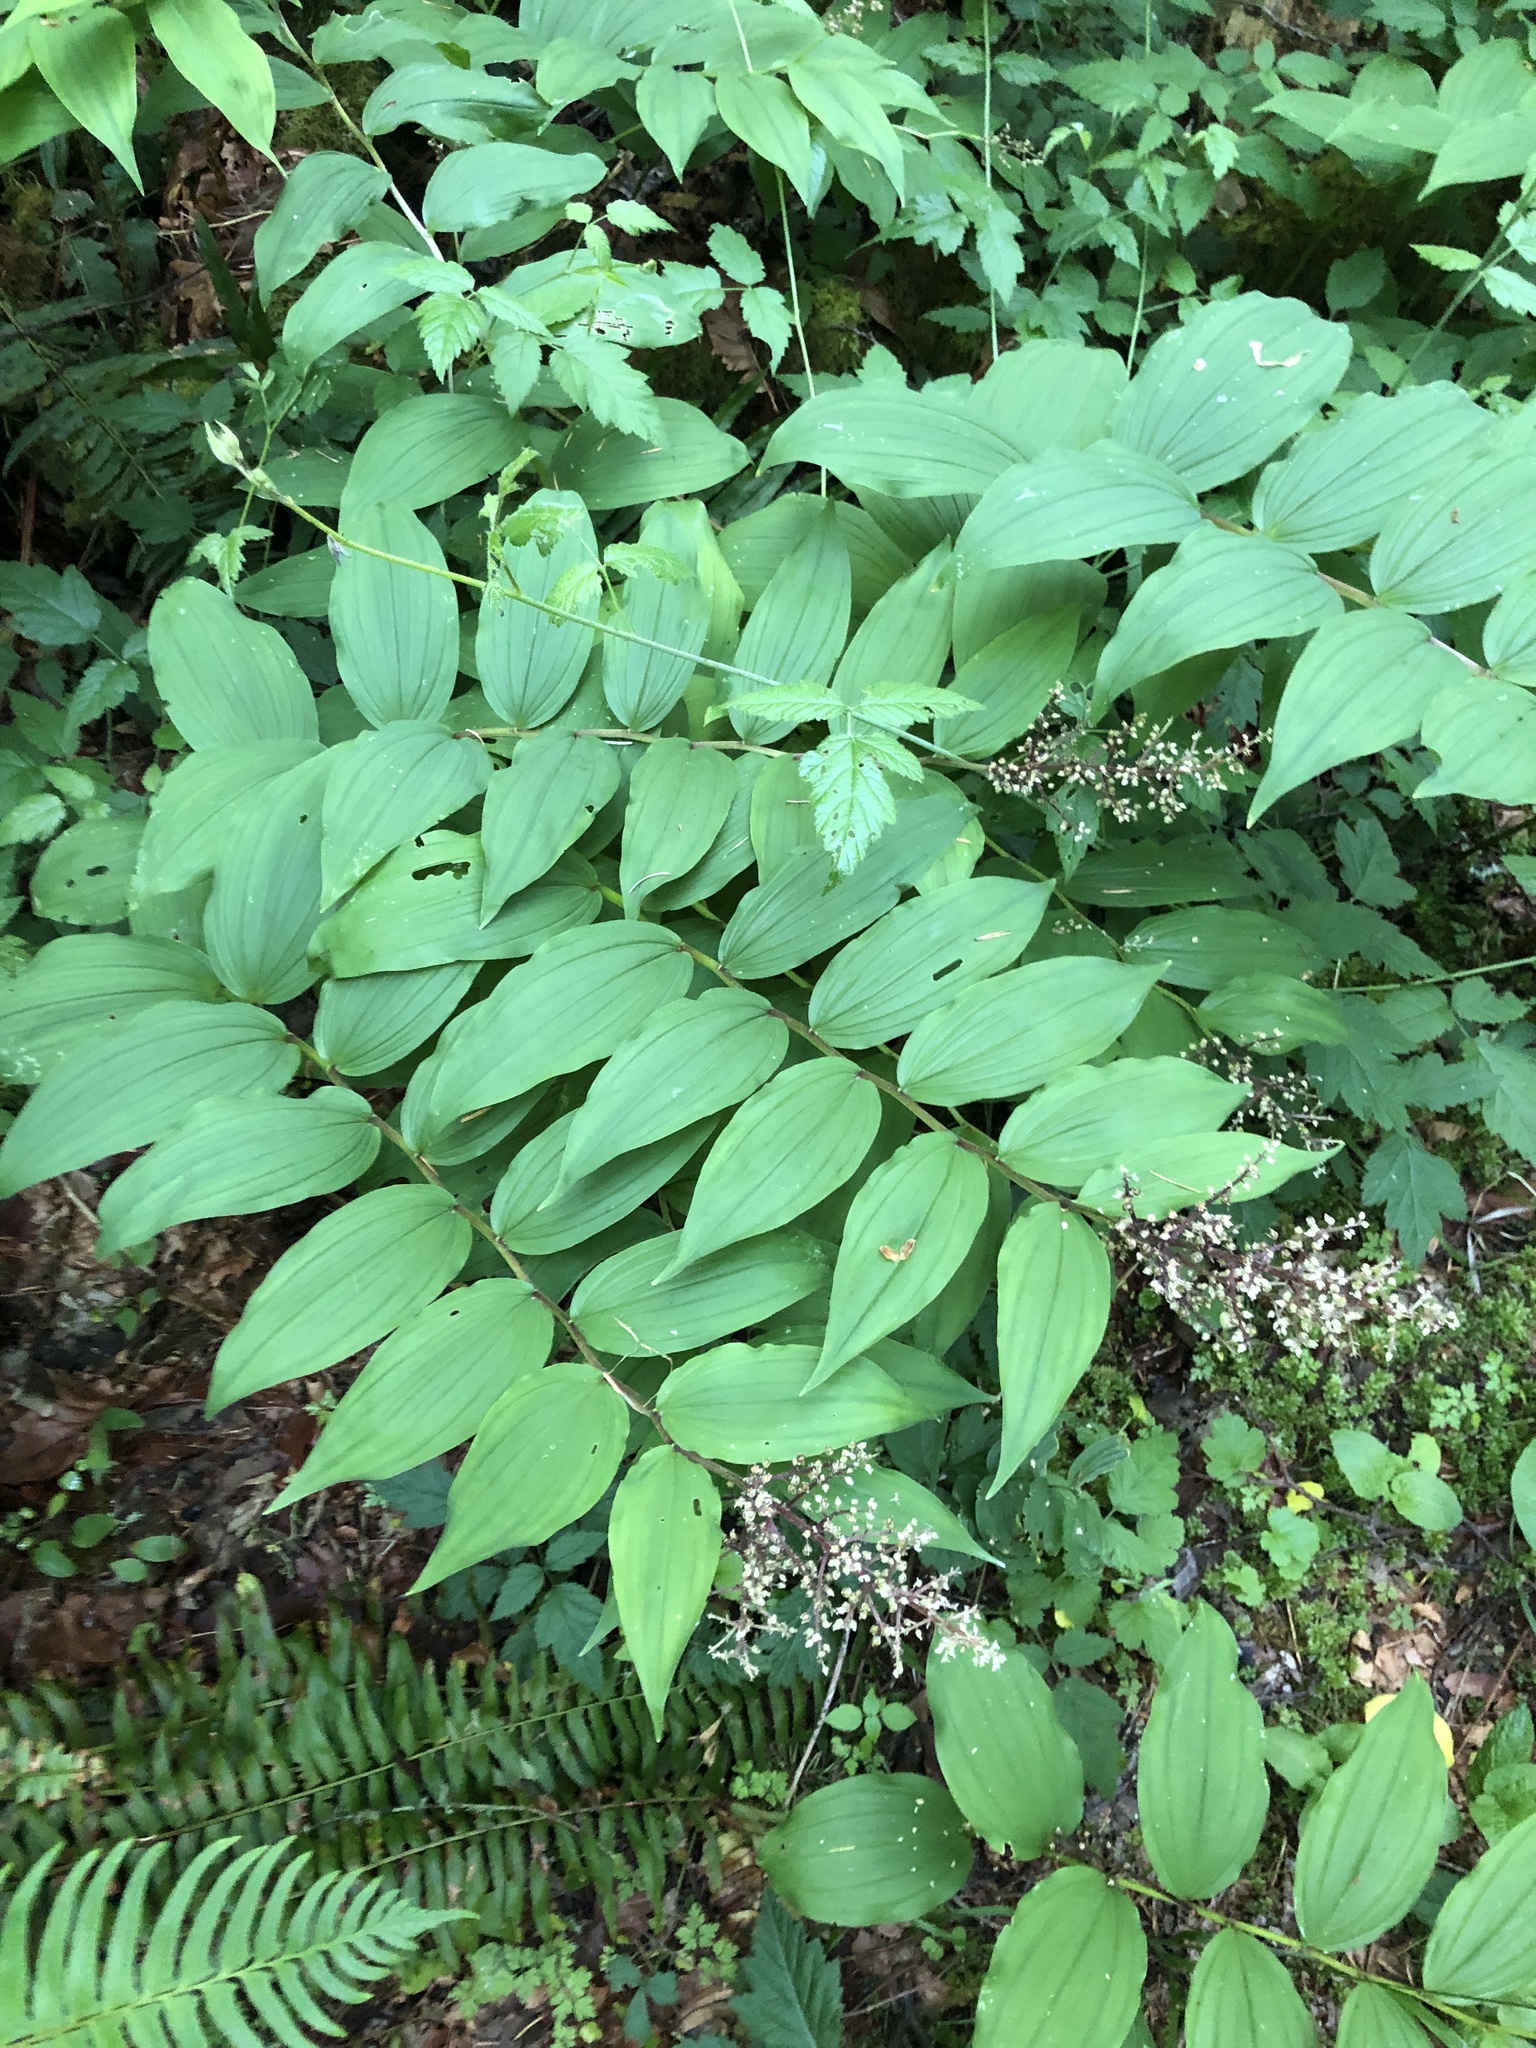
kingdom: Plantae
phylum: Tracheophyta
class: Liliopsida
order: Asparagales
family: Asparagaceae
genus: Maianthemum
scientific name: Maianthemum racemosum
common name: False spikenard
